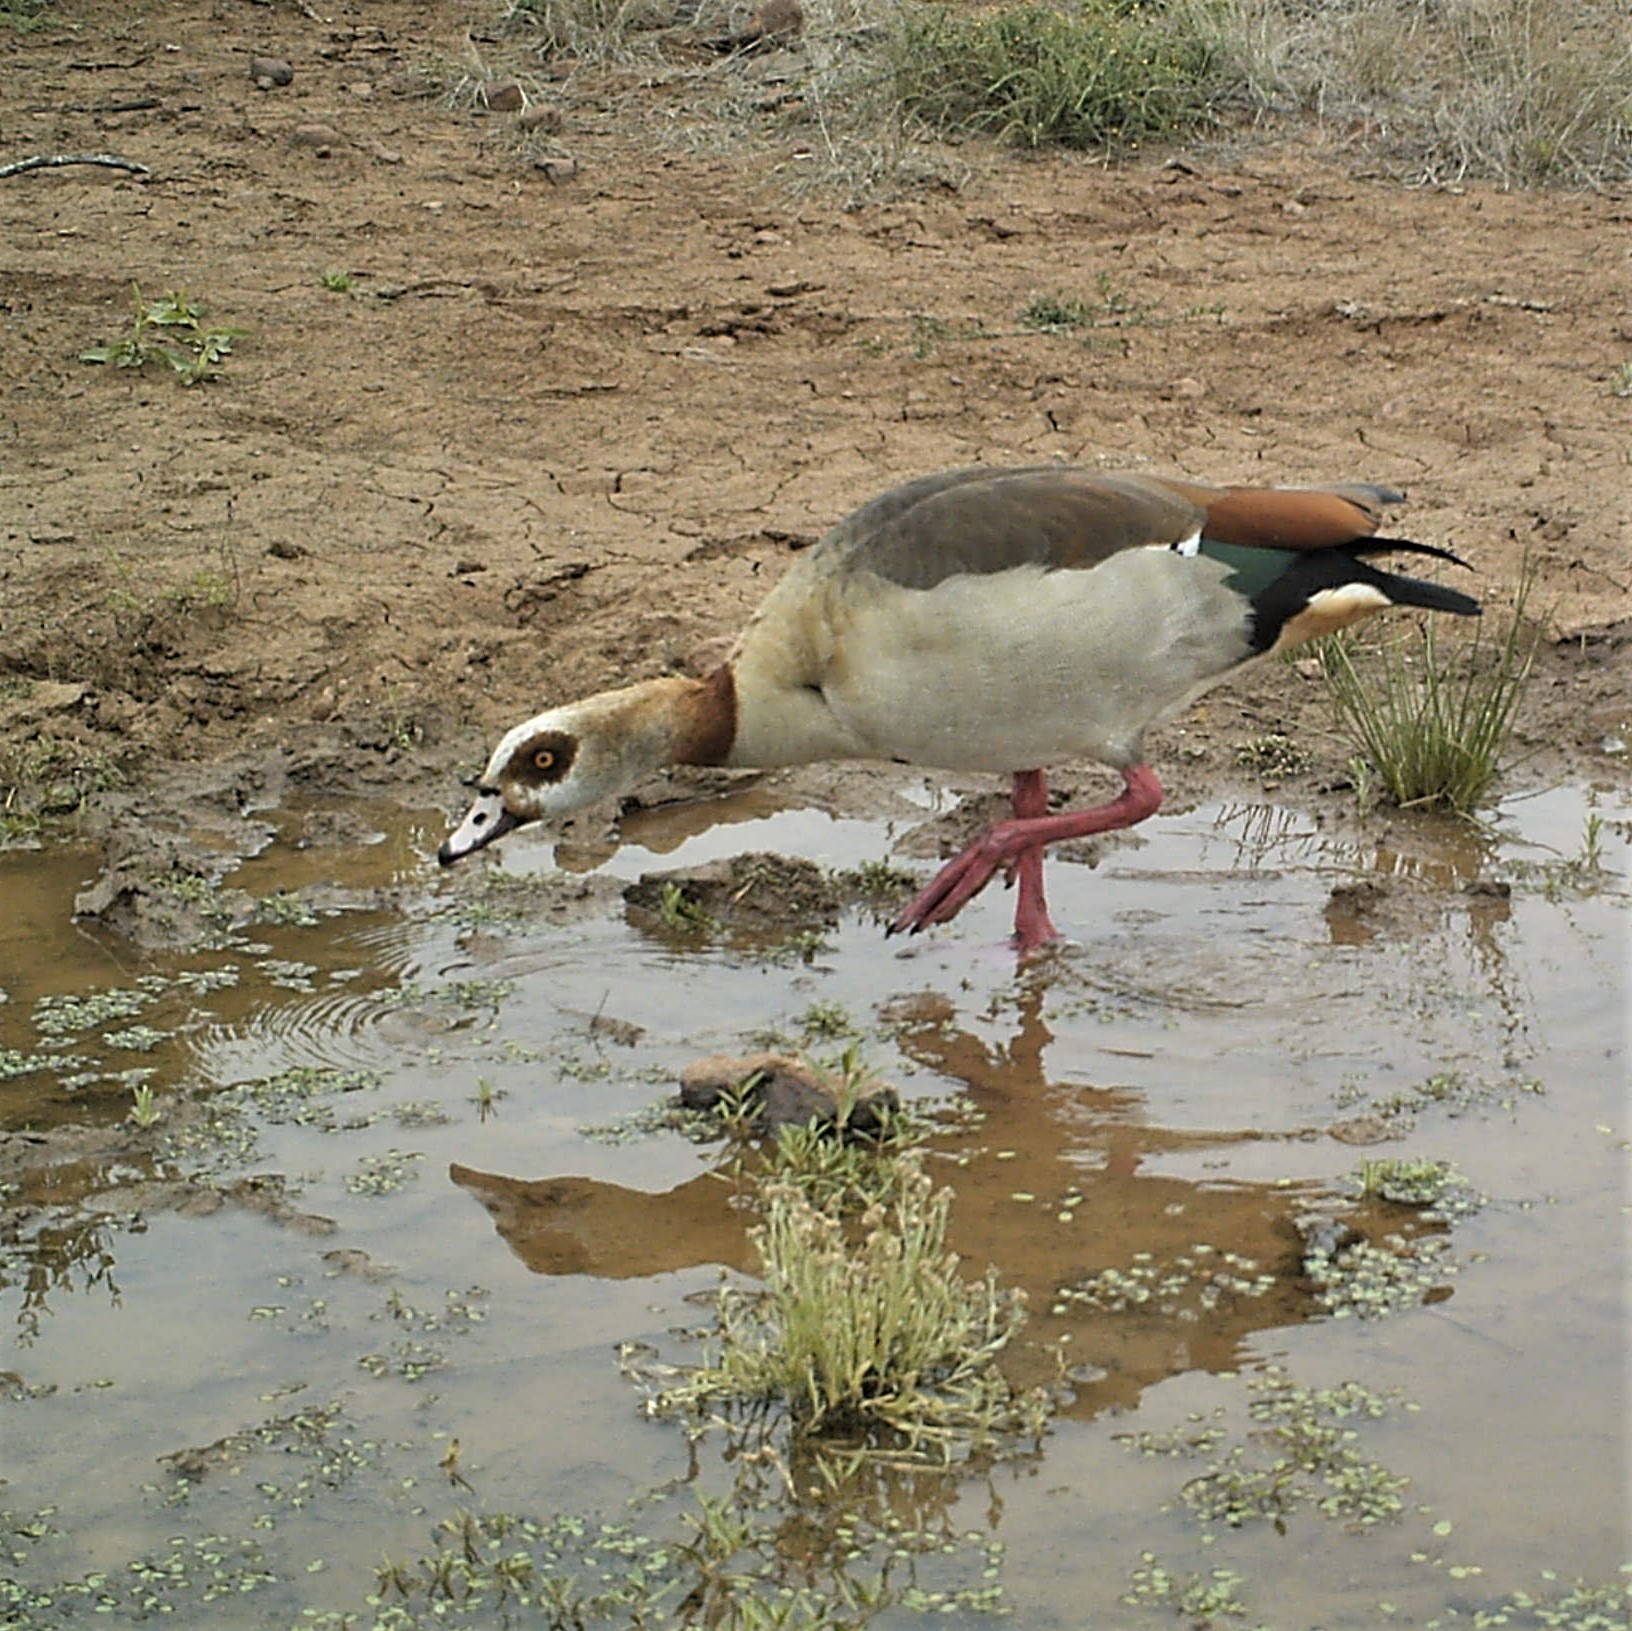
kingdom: Animalia
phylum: Chordata
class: Aves
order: Anseriformes
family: Anatidae
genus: Alopochen
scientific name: Alopochen aegyptiaca
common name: Egyptian goose
